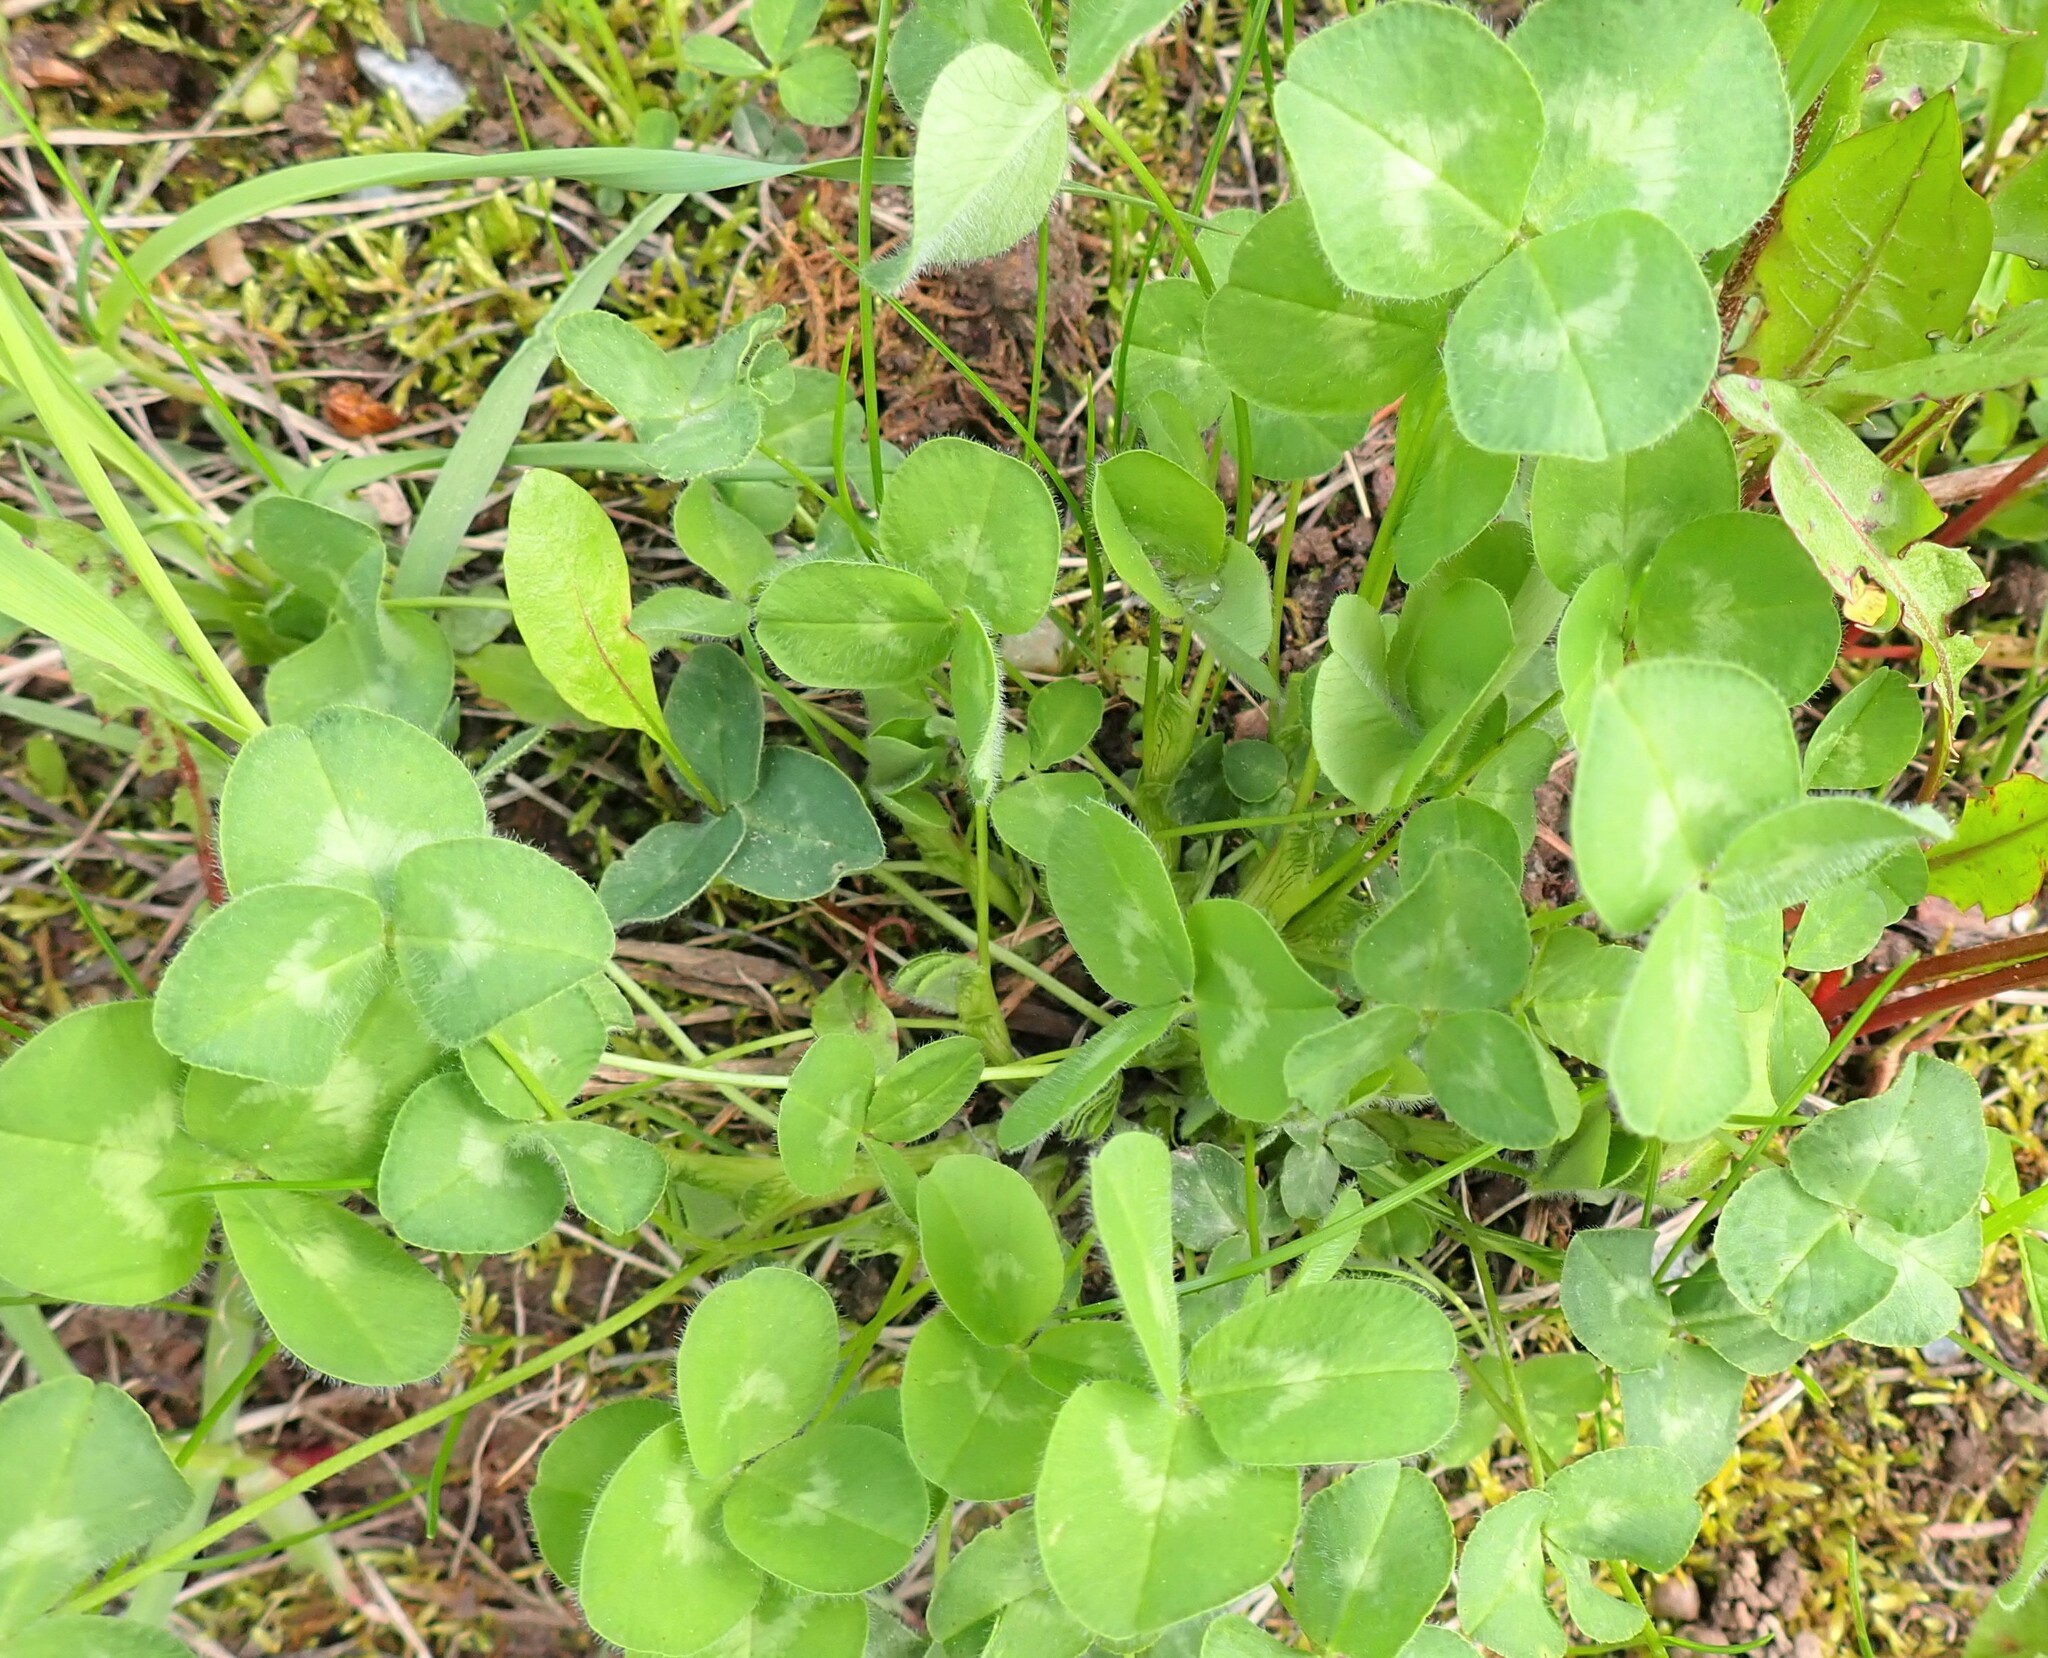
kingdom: Plantae
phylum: Tracheophyta
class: Magnoliopsida
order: Fabales
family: Fabaceae
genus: Trifolium
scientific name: Trifolium pratense
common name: Red clover
